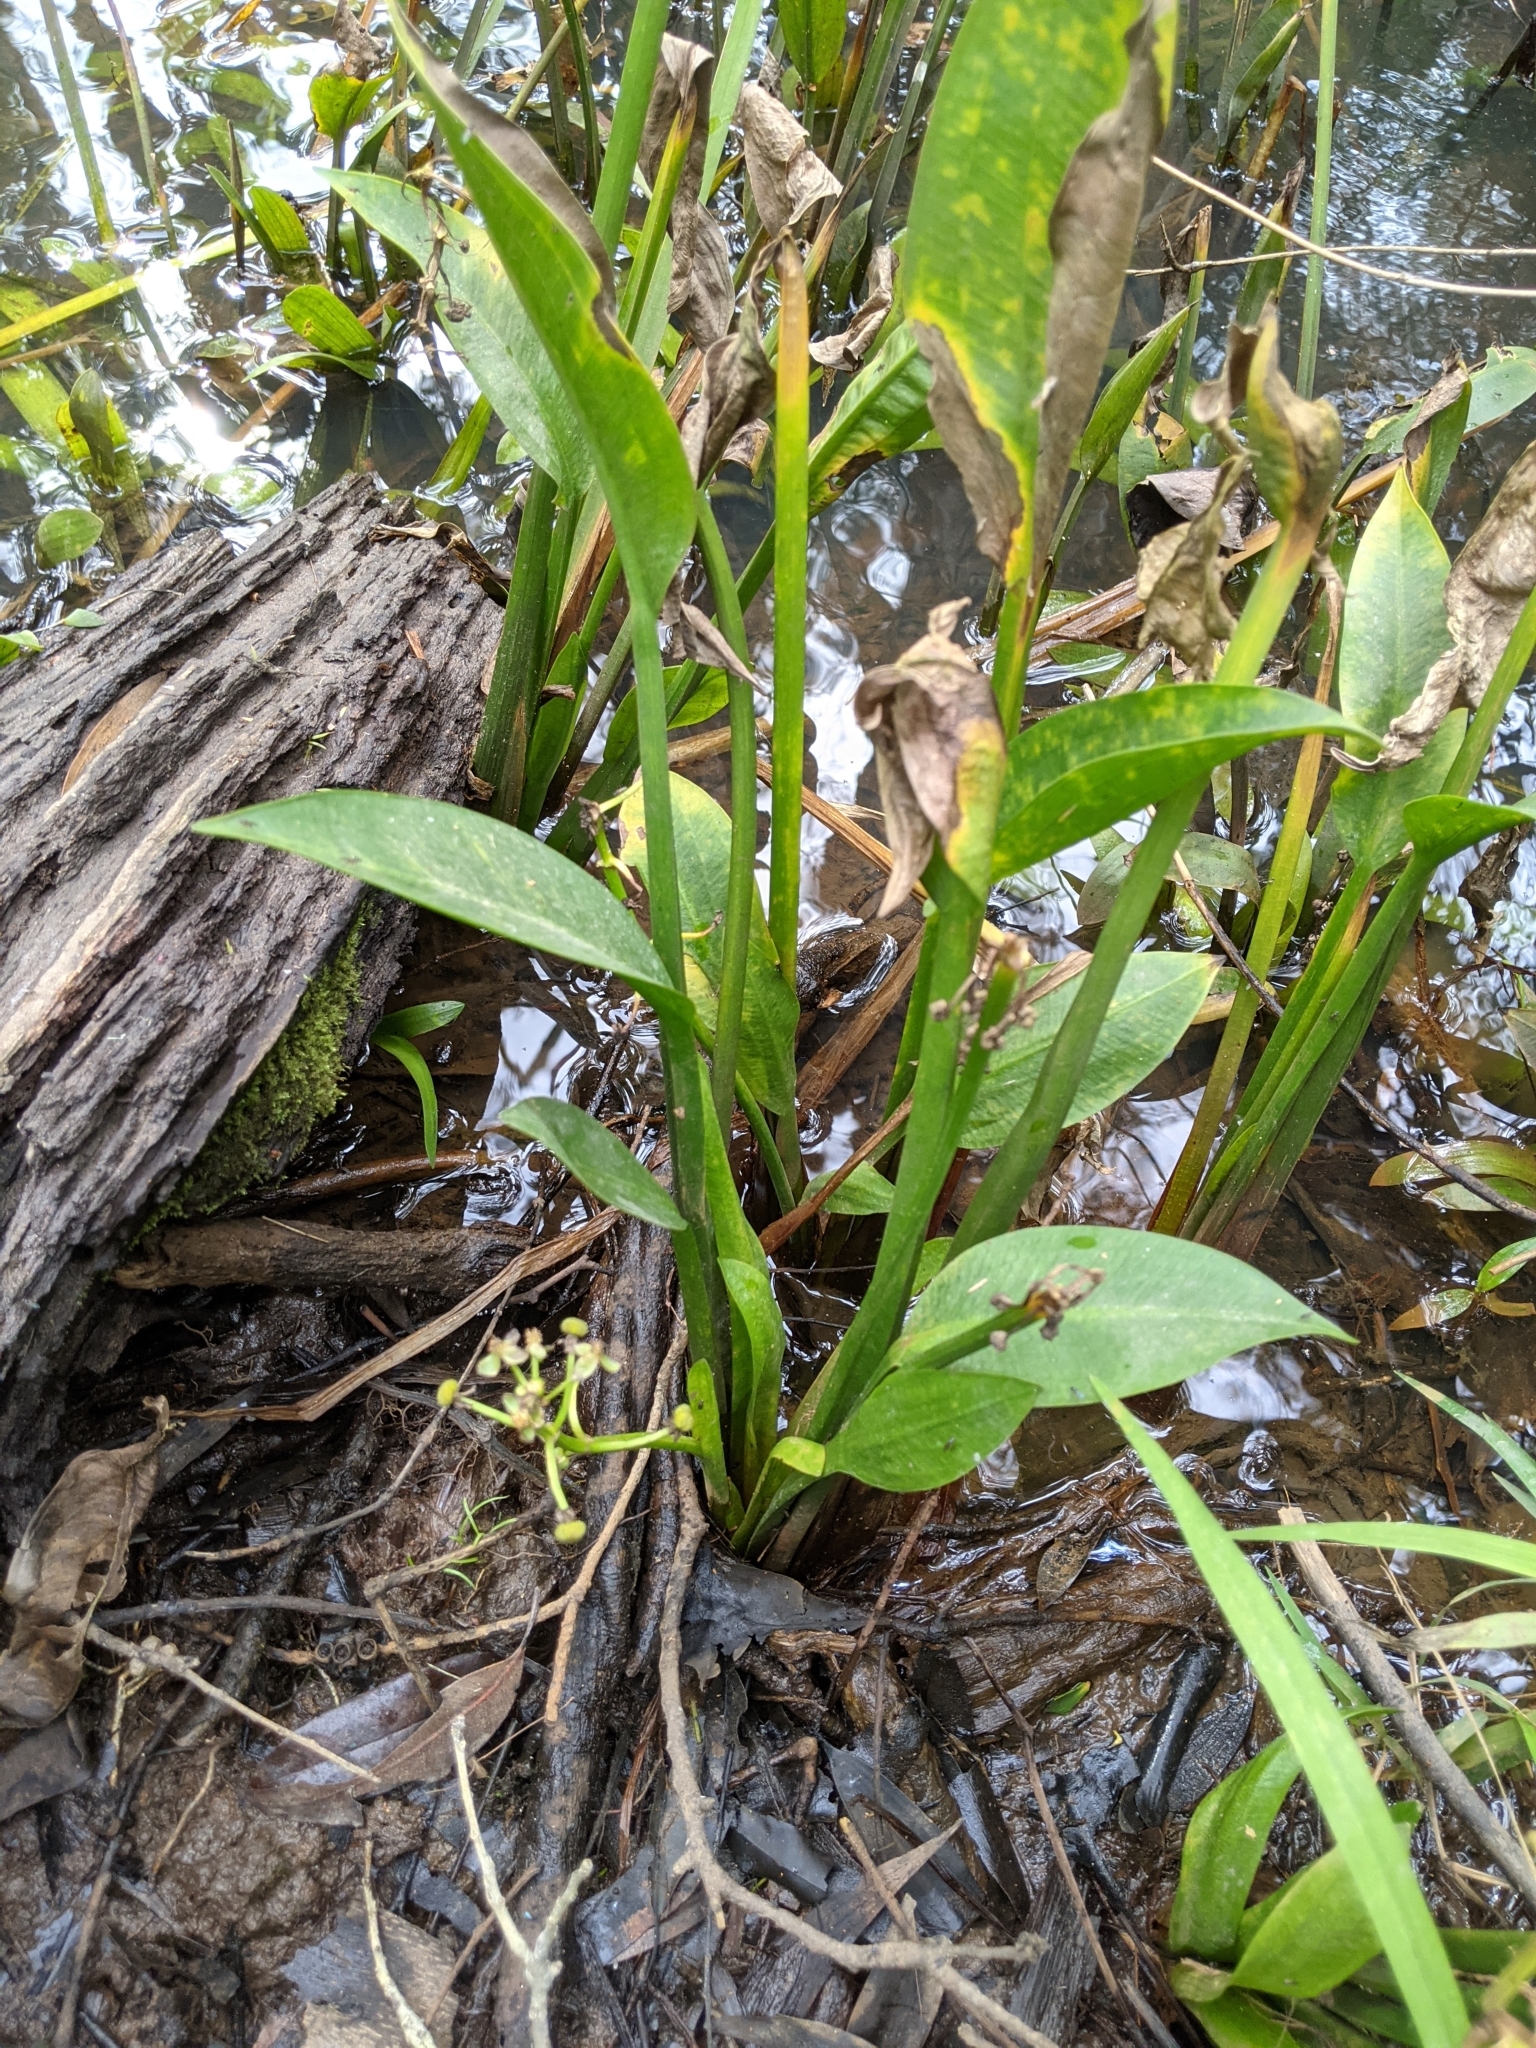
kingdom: Plantae
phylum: Tracheophyta
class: Liliopsida
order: Alismatales
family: Alismataceae
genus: Sagittaria
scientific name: Sagittaria platyphylla
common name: Broad-leaf arrowhead
